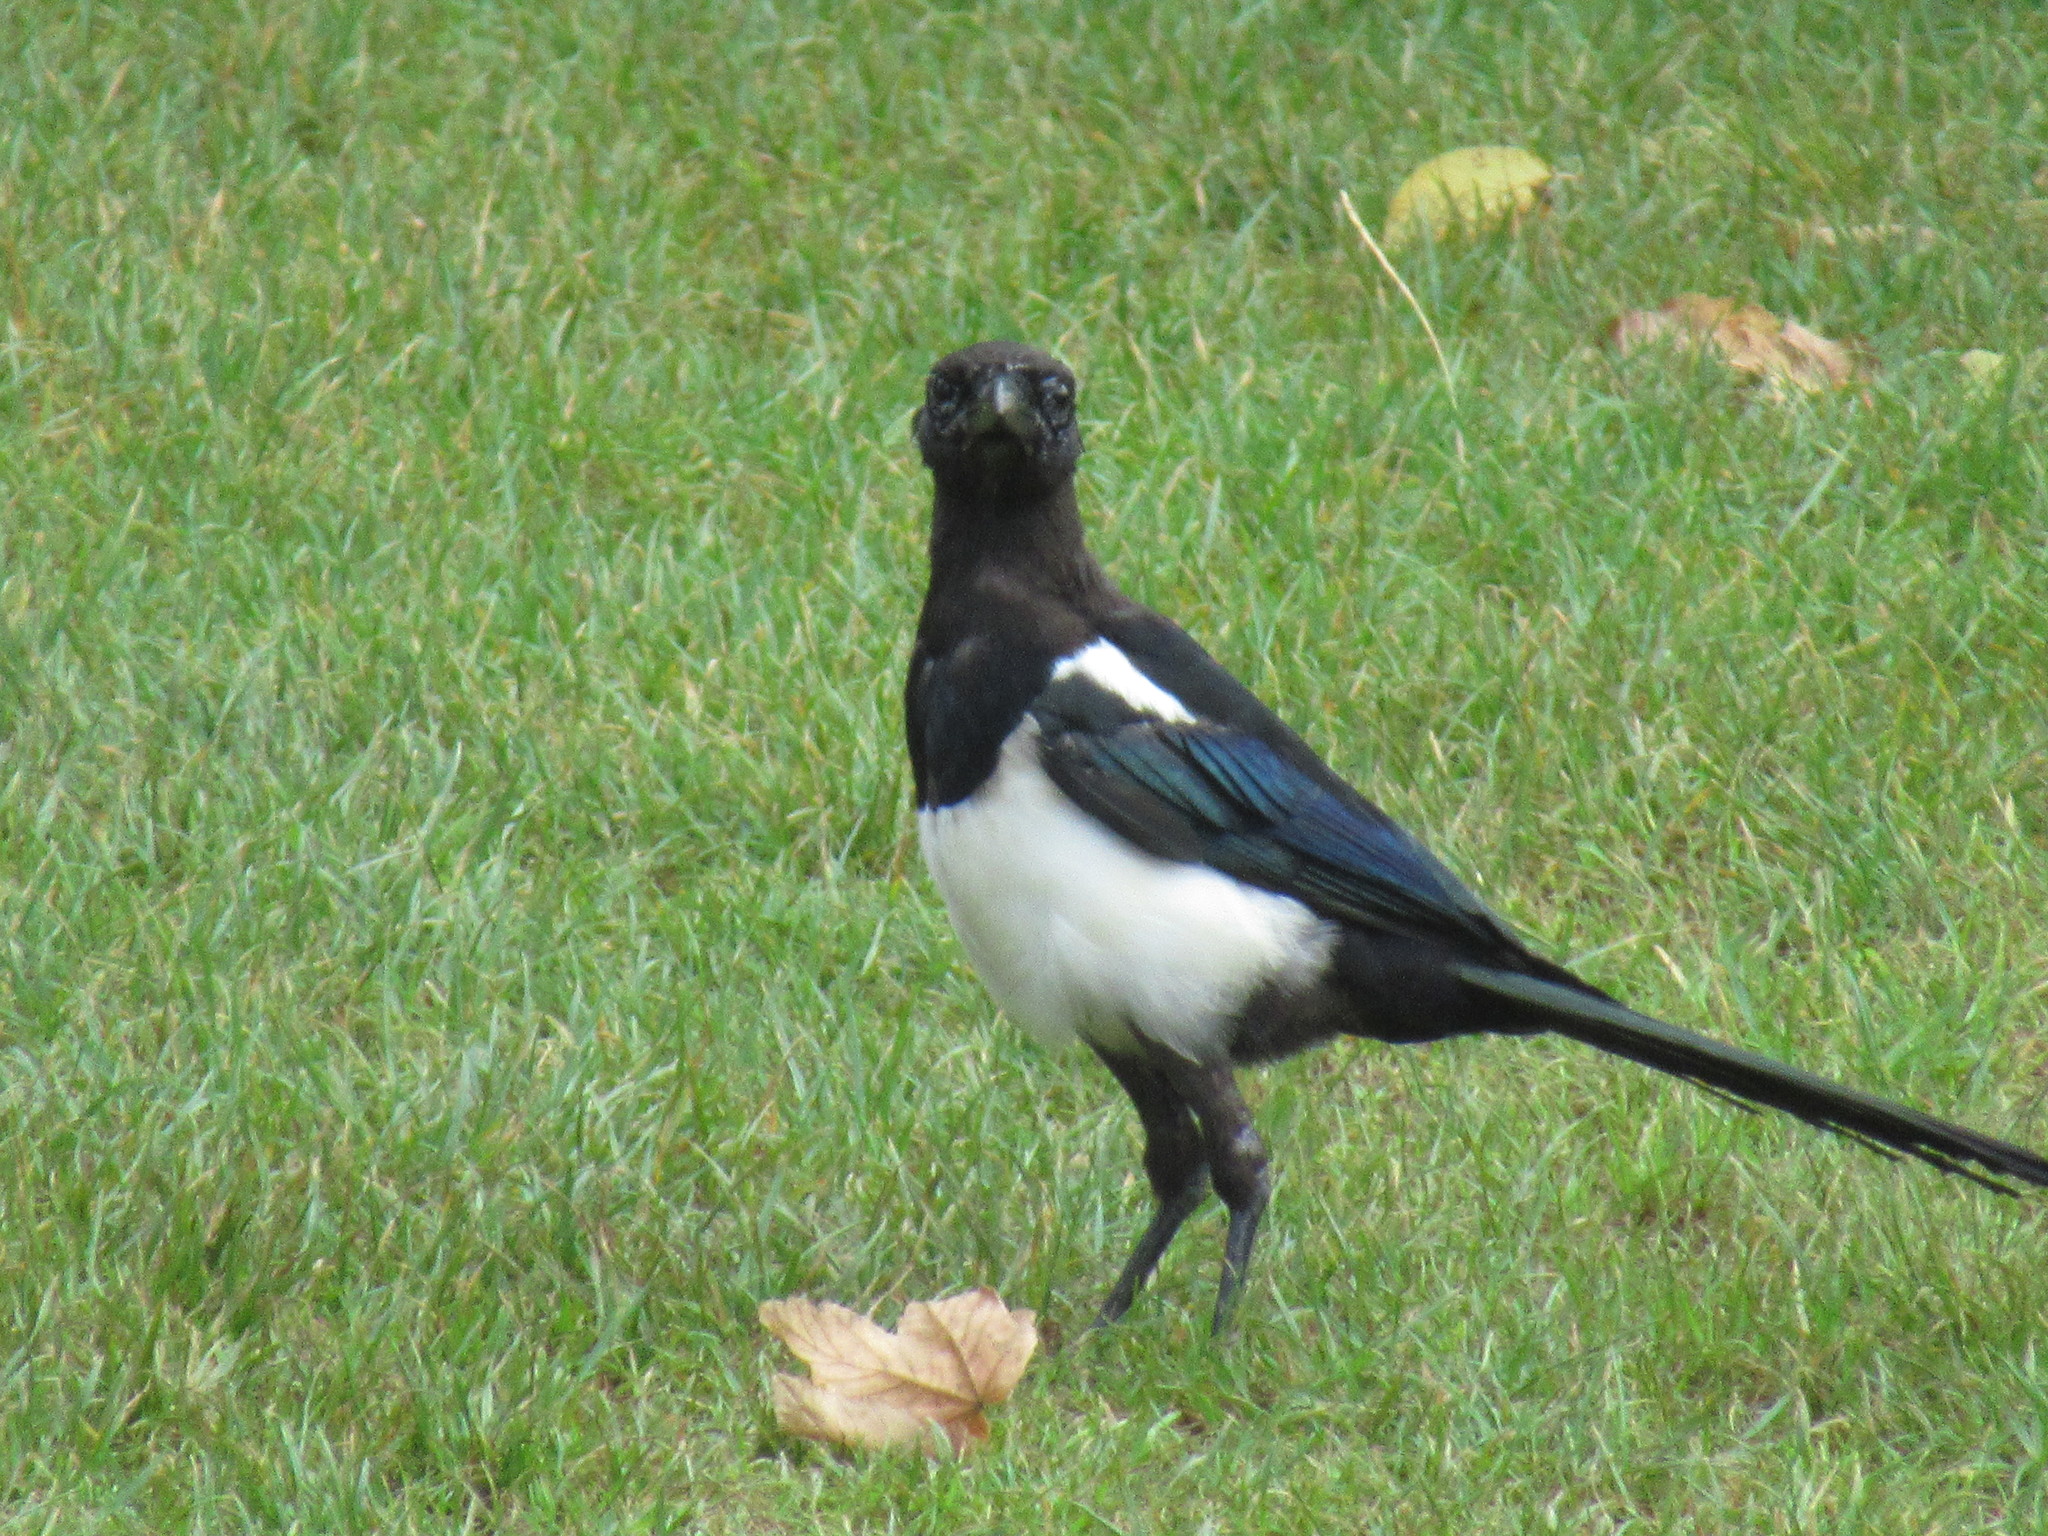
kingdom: Animalia
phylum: Chordata
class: Aves
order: Passeriformes
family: Corvidae
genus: Pica
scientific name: Pica pica
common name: Eurasian magpie
